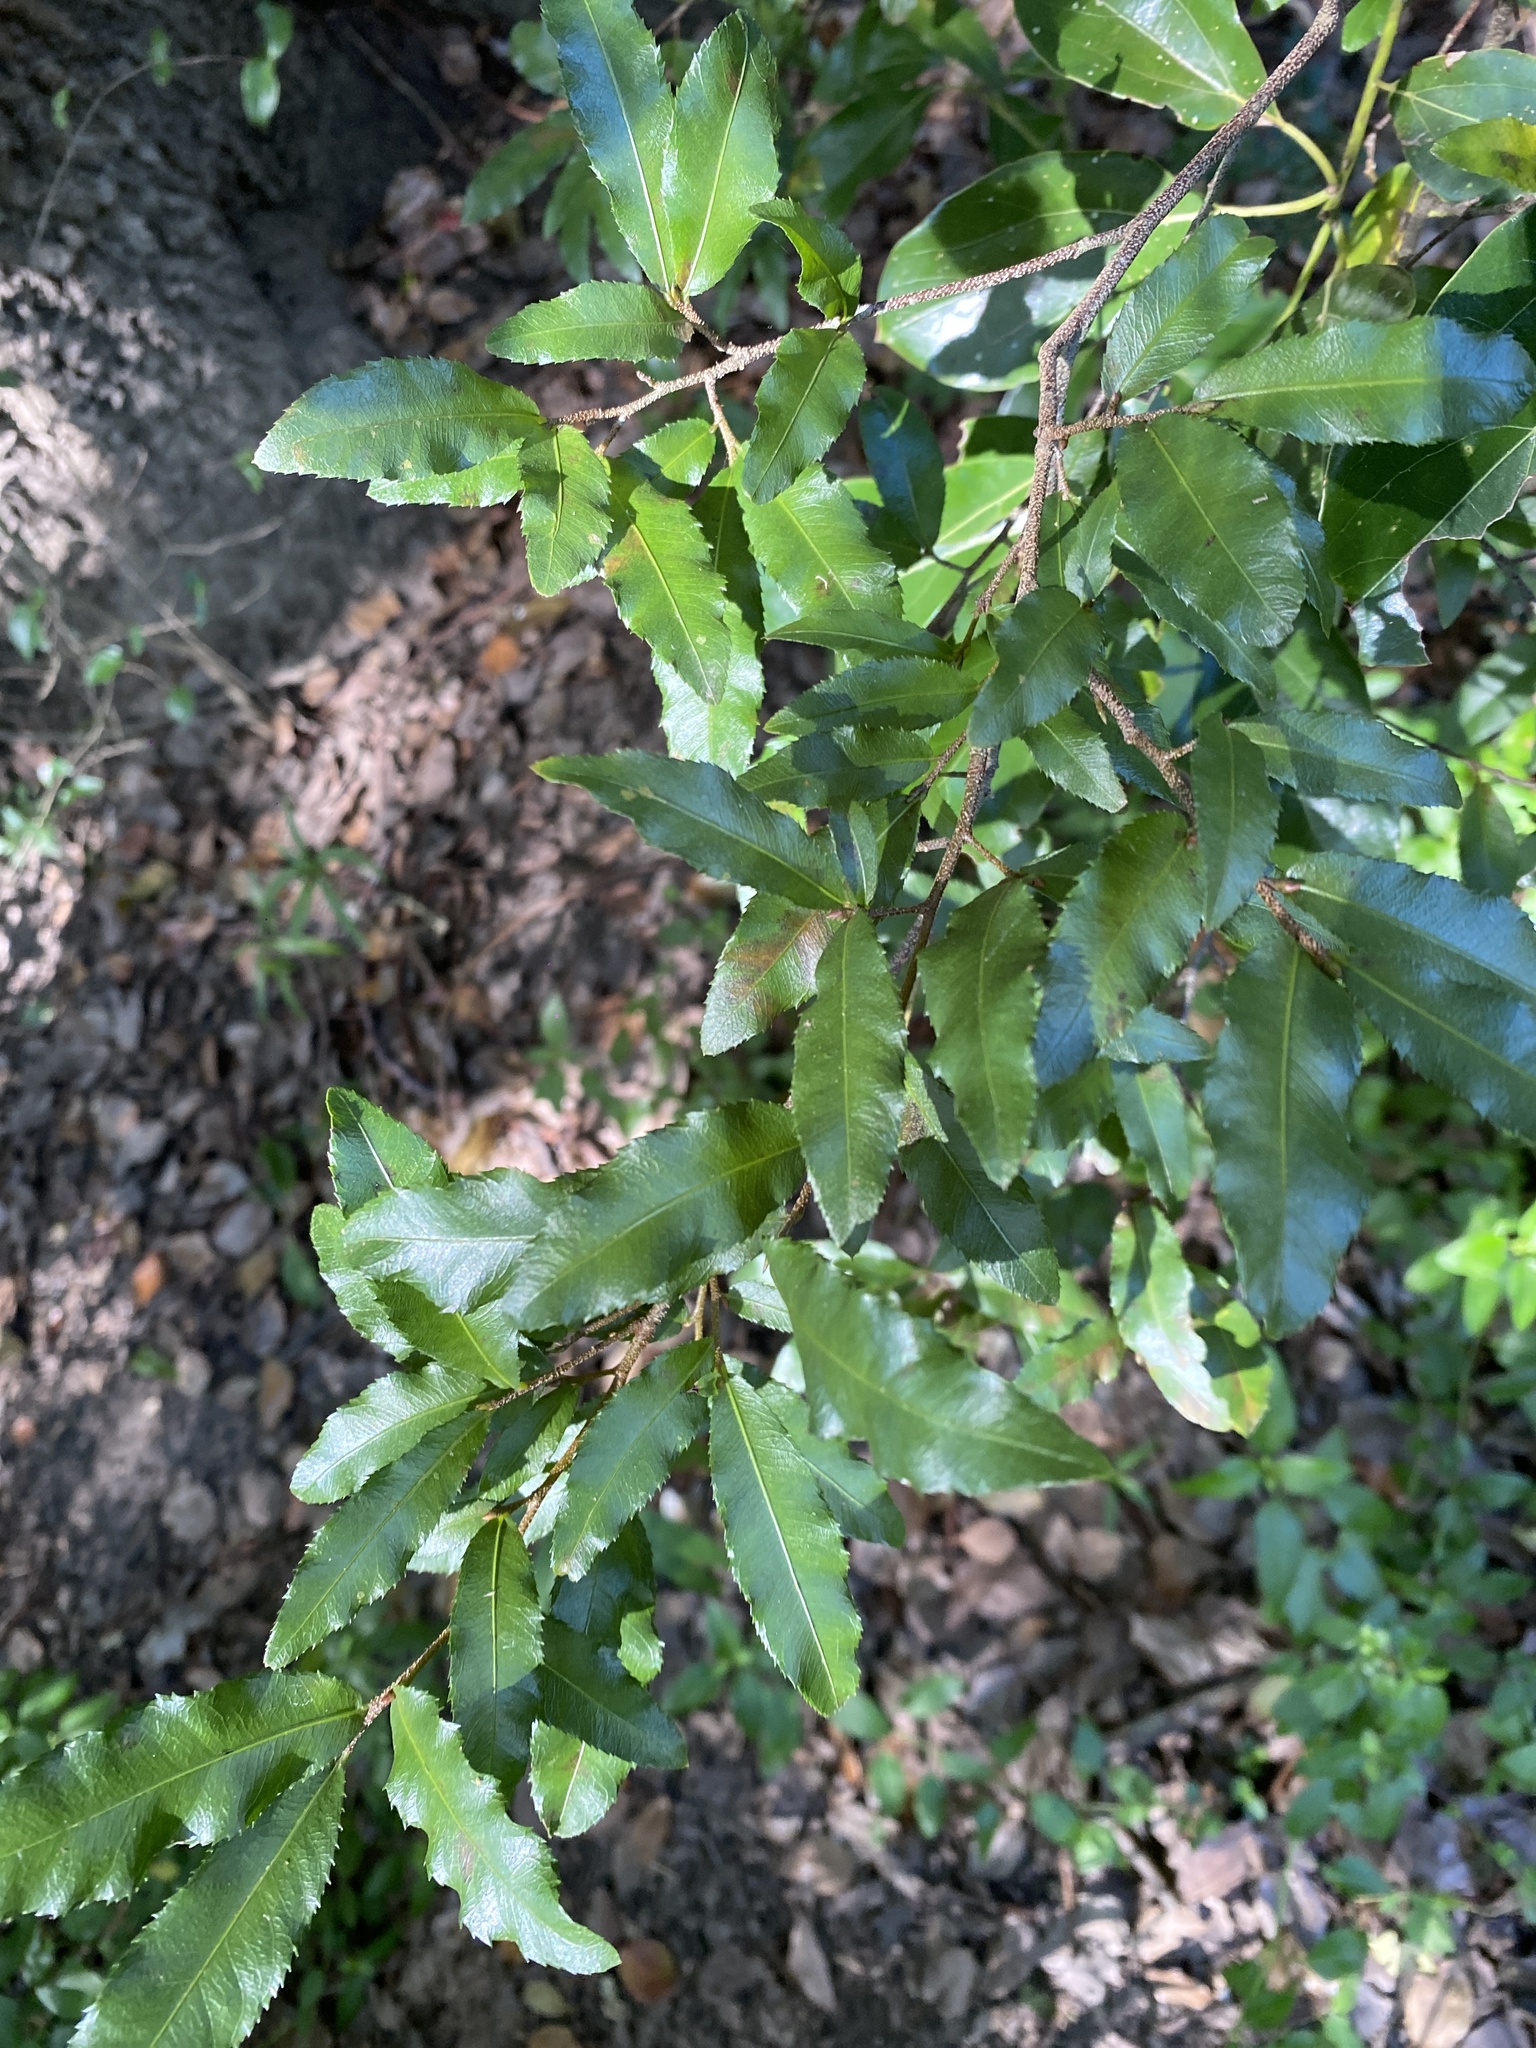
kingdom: Plantae
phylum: Tracheophyta
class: Magnoliopsida
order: Malpighiales
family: Ochnaceae
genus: Ochna
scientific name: Ochna serrulata
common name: Mickey mouse plant
